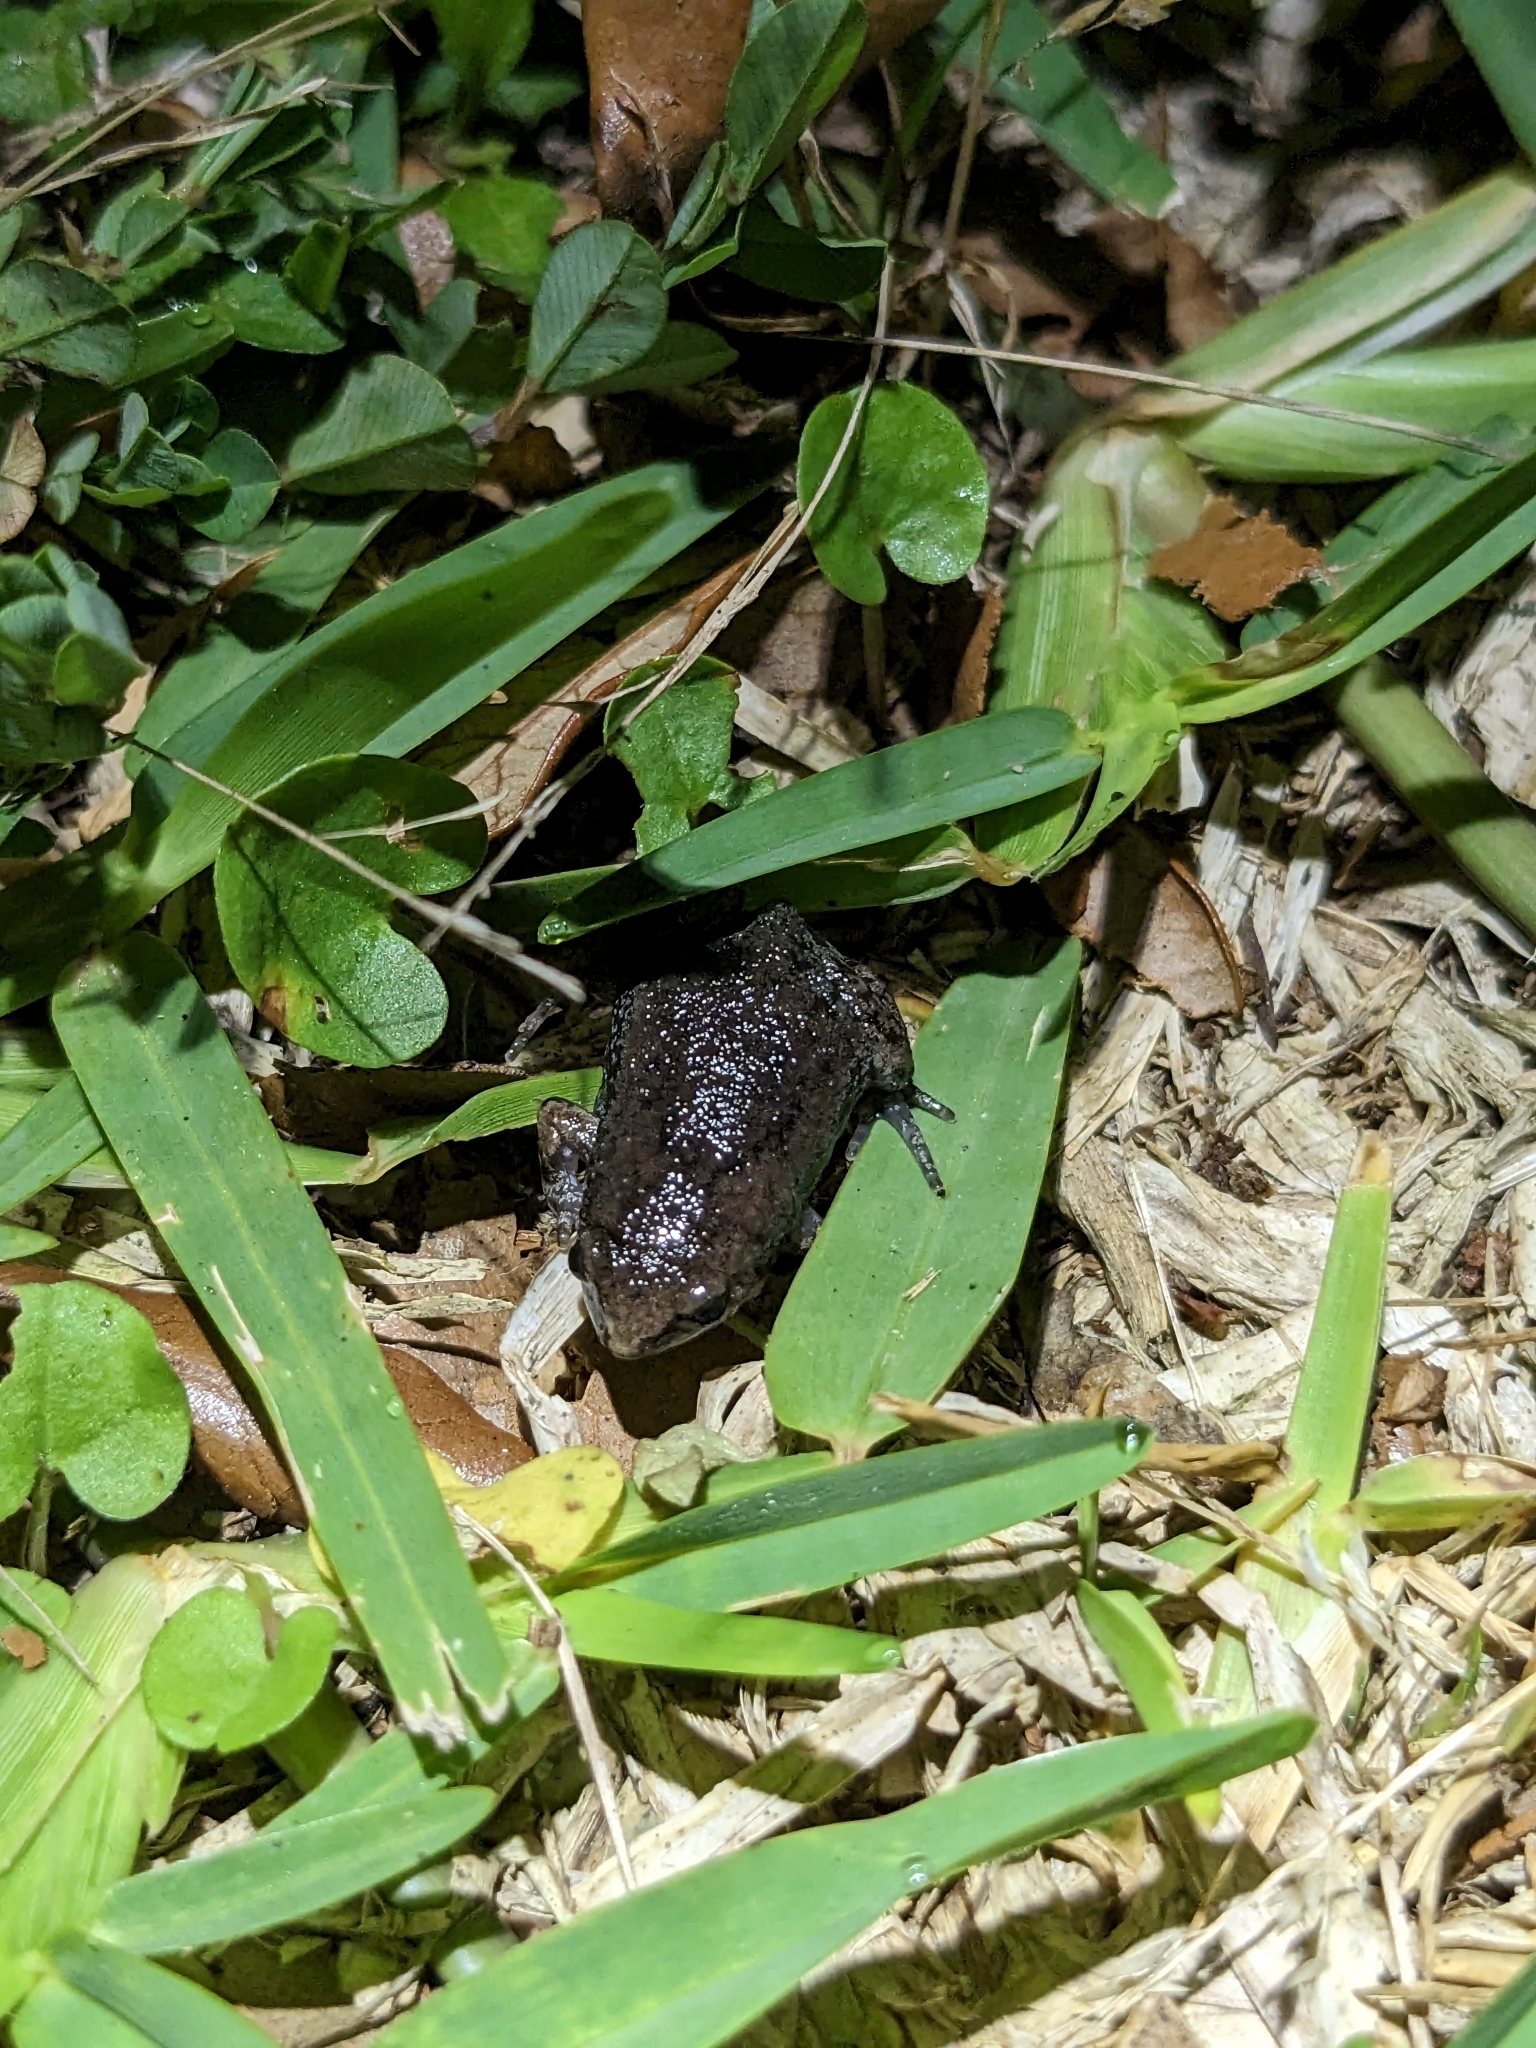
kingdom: Animalia
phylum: Chordata
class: Amphibia
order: Anura
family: Microhylidae
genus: Gastrophryne
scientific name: Gastrophryne carolinensis
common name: Eastern narrowmouth toad
